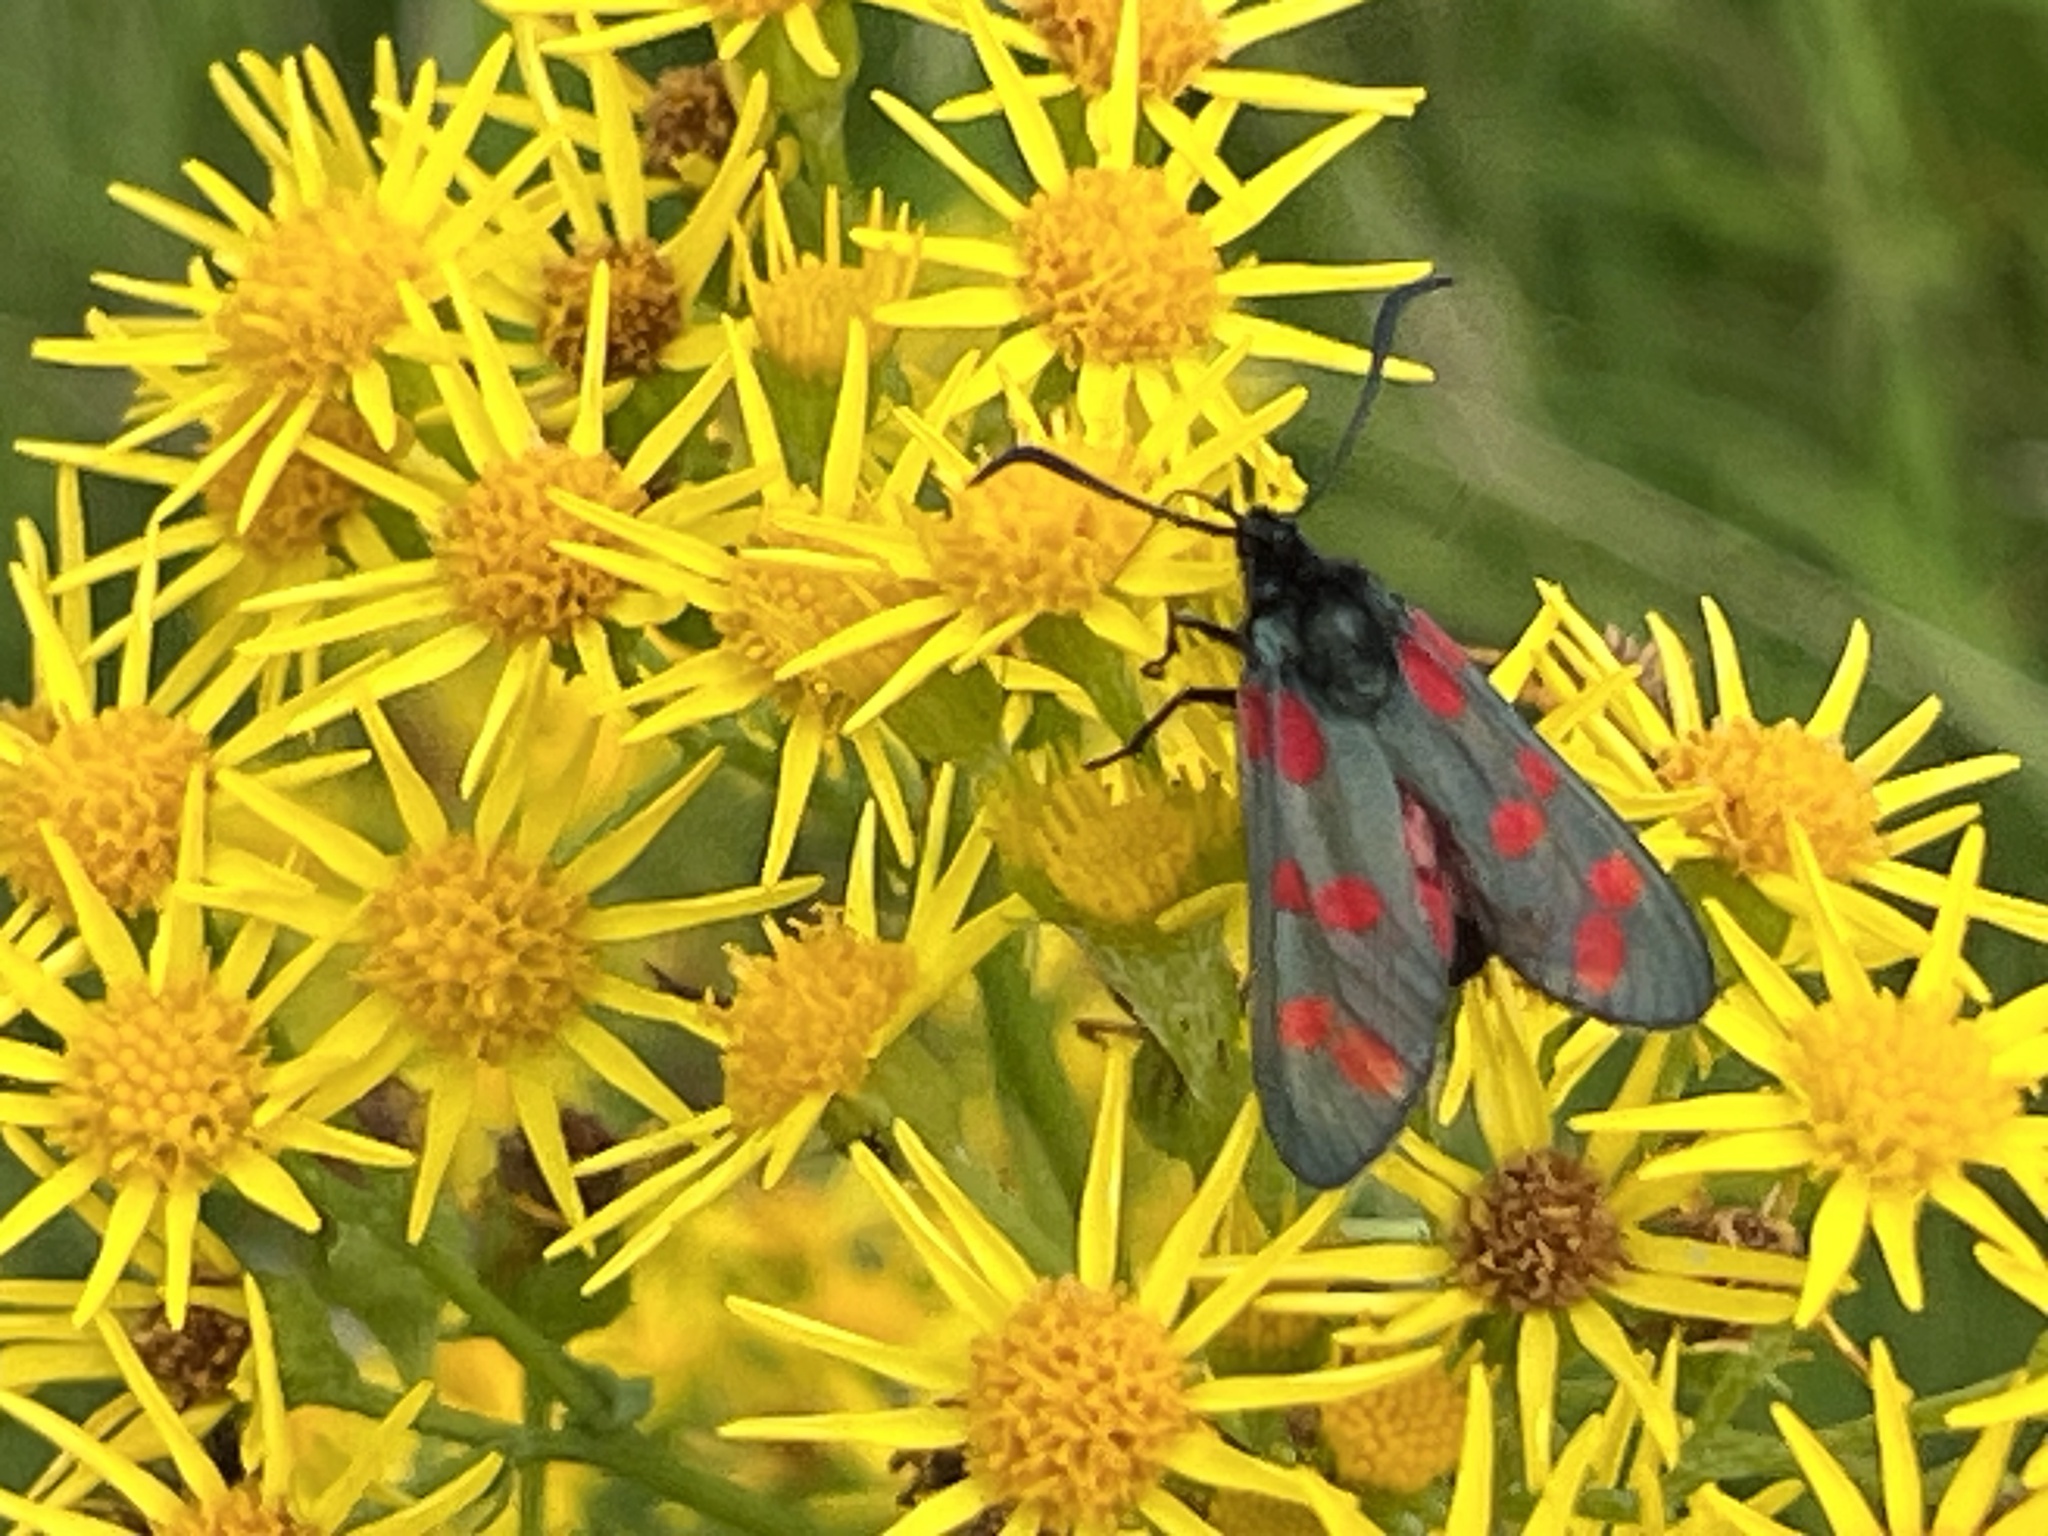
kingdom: Animalia
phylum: Arthropoda
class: Insecta
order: Lepidoptera
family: Zygaenidae
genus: Zygaena
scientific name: Zygaena filipendulae
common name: Six-spot burnet
